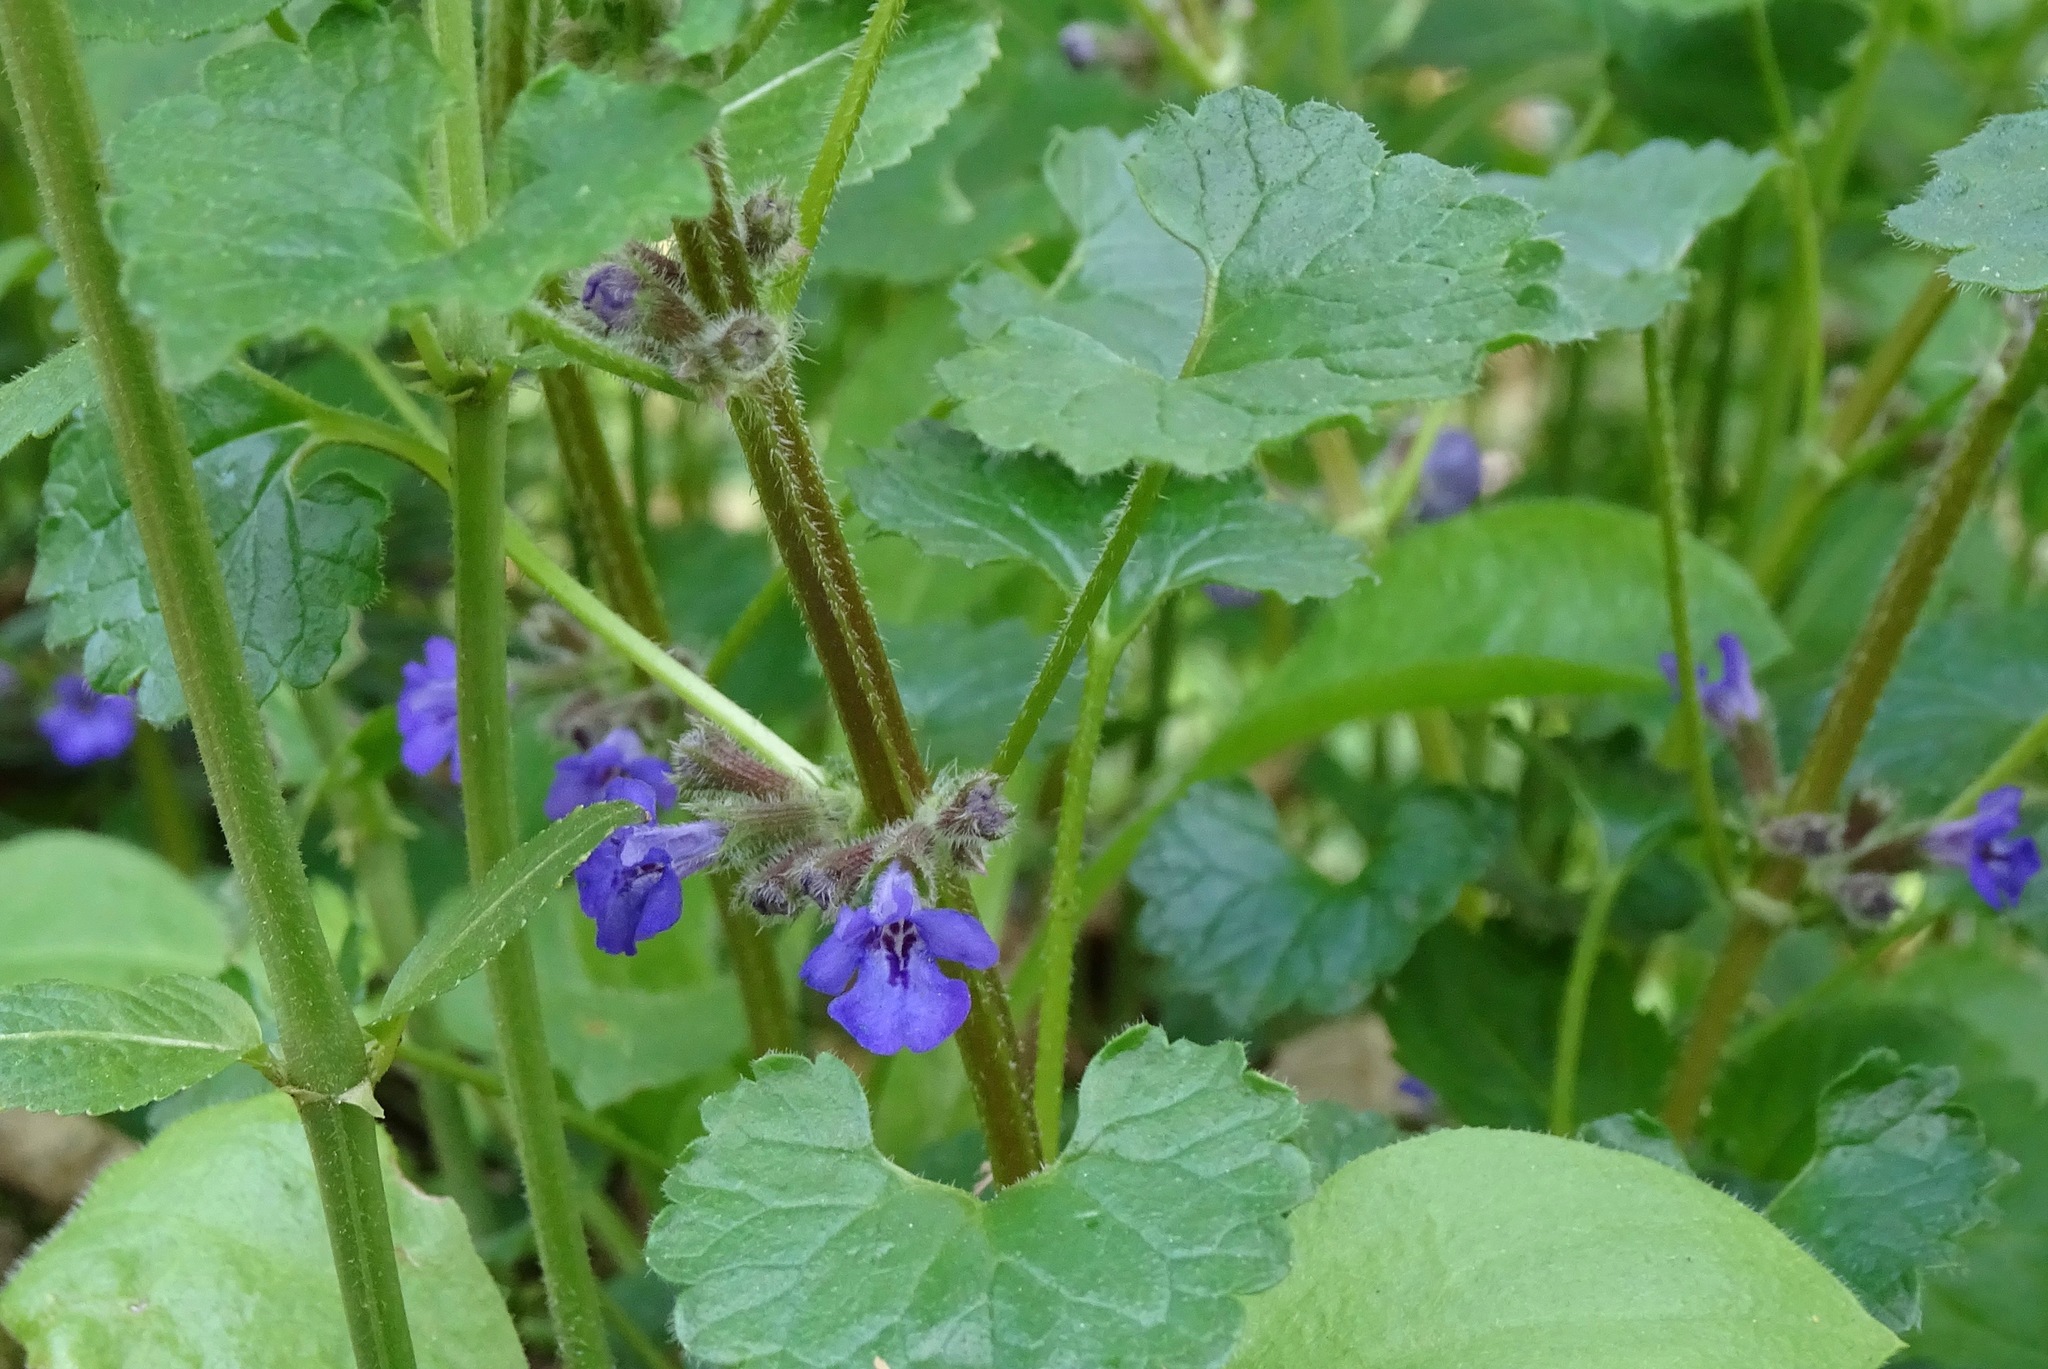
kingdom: Plantae
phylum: Tracheophyta
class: Magnoliopsida
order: Lamiales
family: Lamiaceae
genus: Glechoma
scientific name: Glechoma hederacea
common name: Ground ivy
